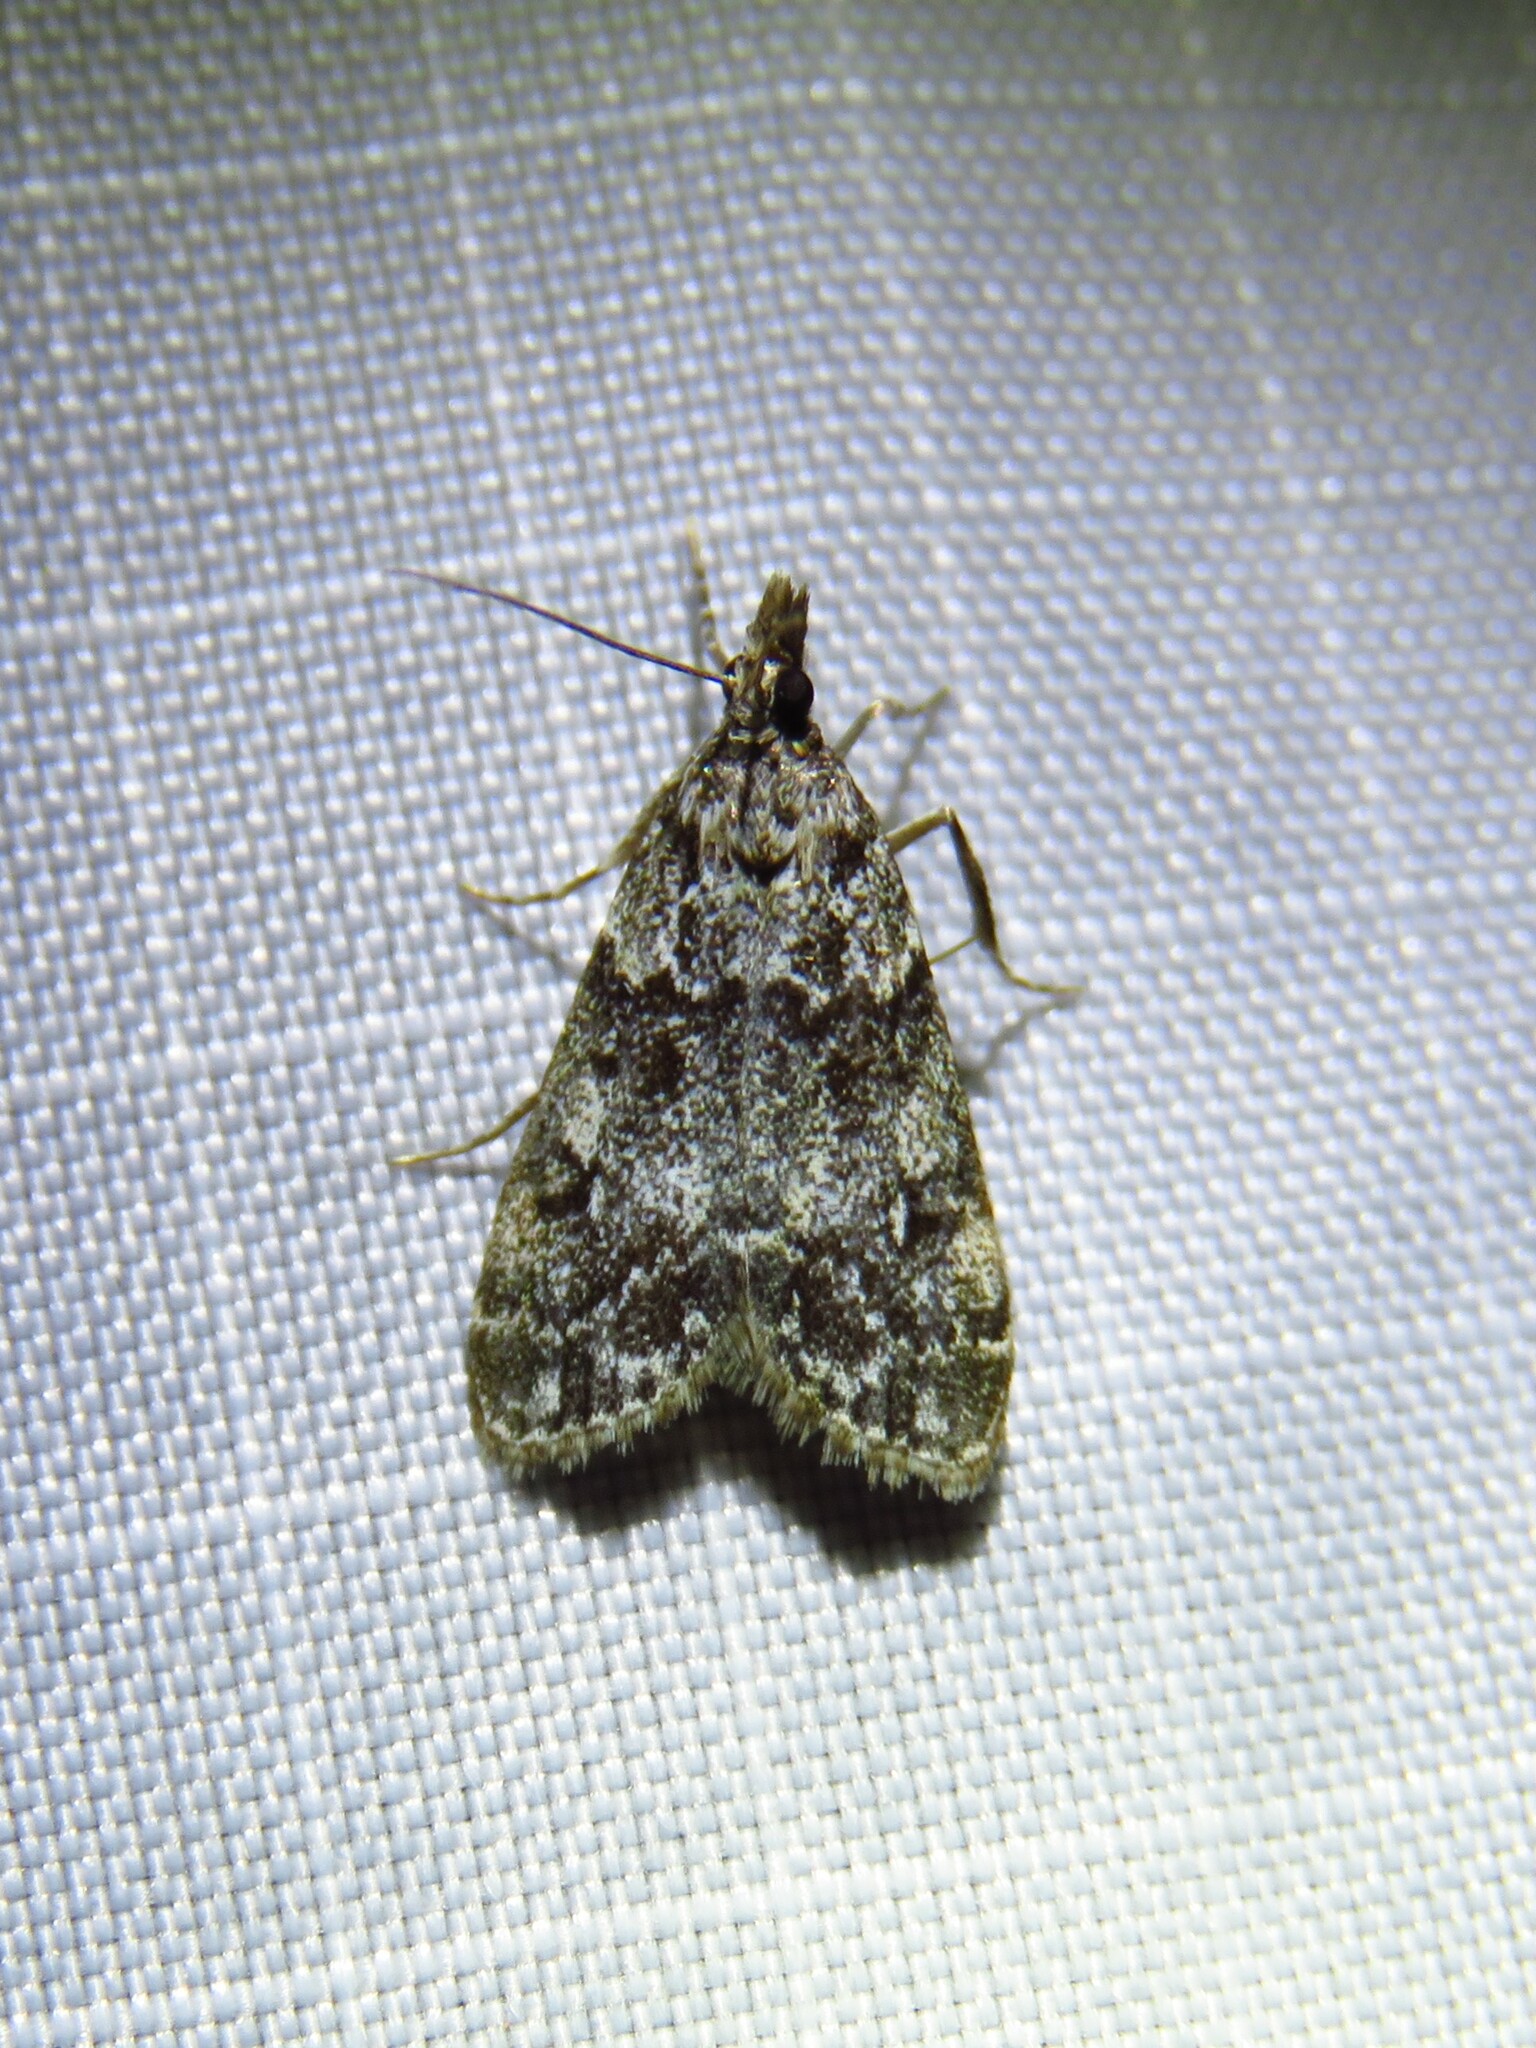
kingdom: Animalia
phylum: Arthropoda
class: Insecta
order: Lepidoptera
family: Crambidae
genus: Eudonia
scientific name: Eudonia lacustrata
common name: Little grey
